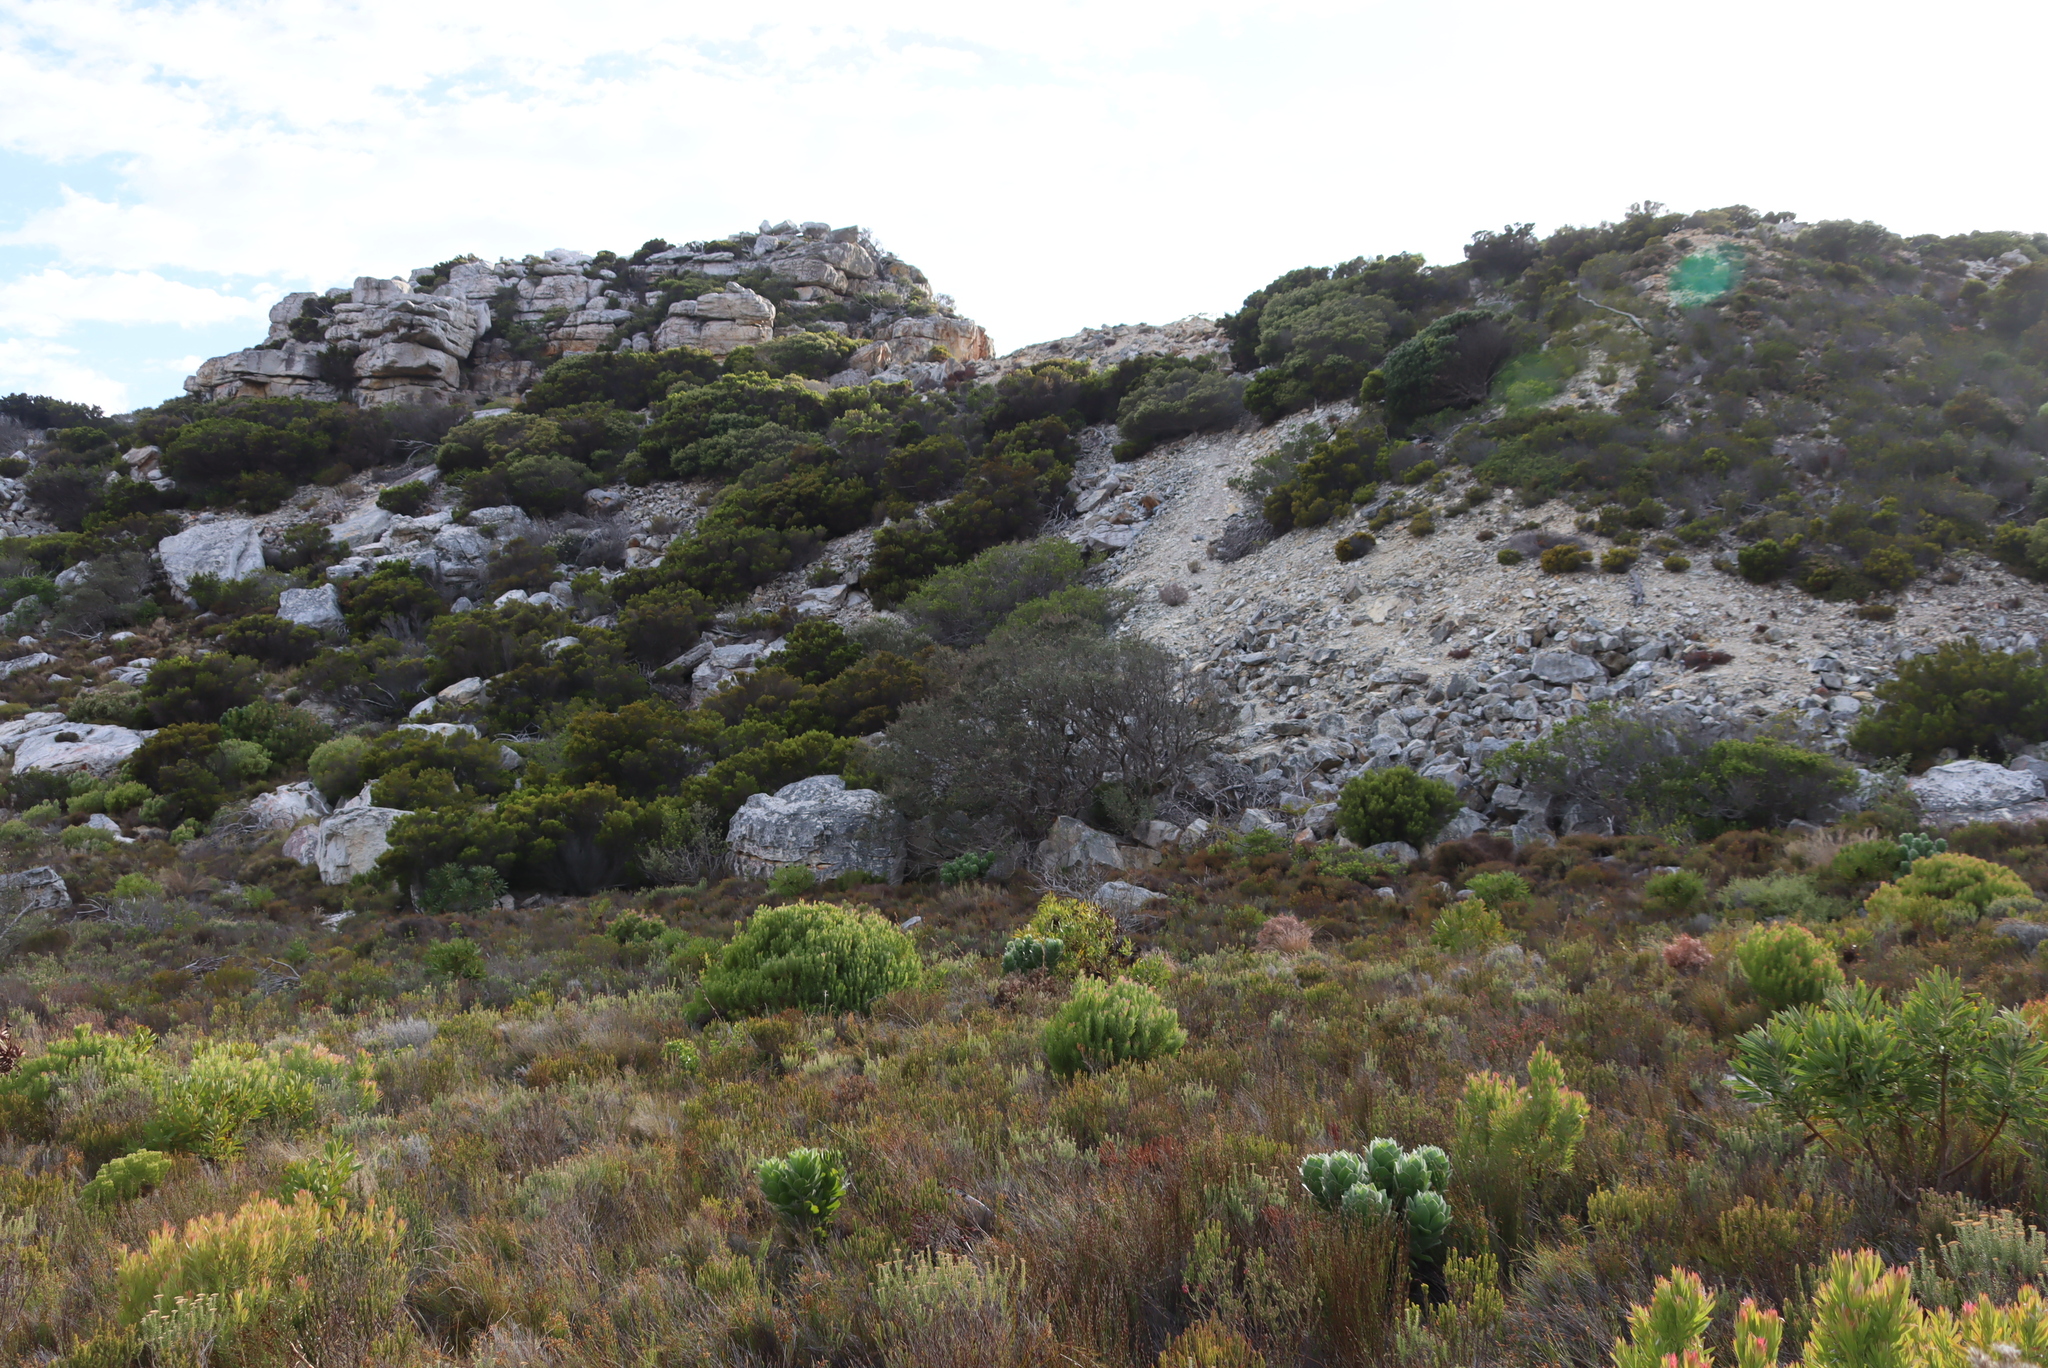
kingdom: Plantae
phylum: Tracheophyta
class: Magnoliopsida
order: Ericales
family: Ericaceae
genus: Erica
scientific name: Erica tristis
